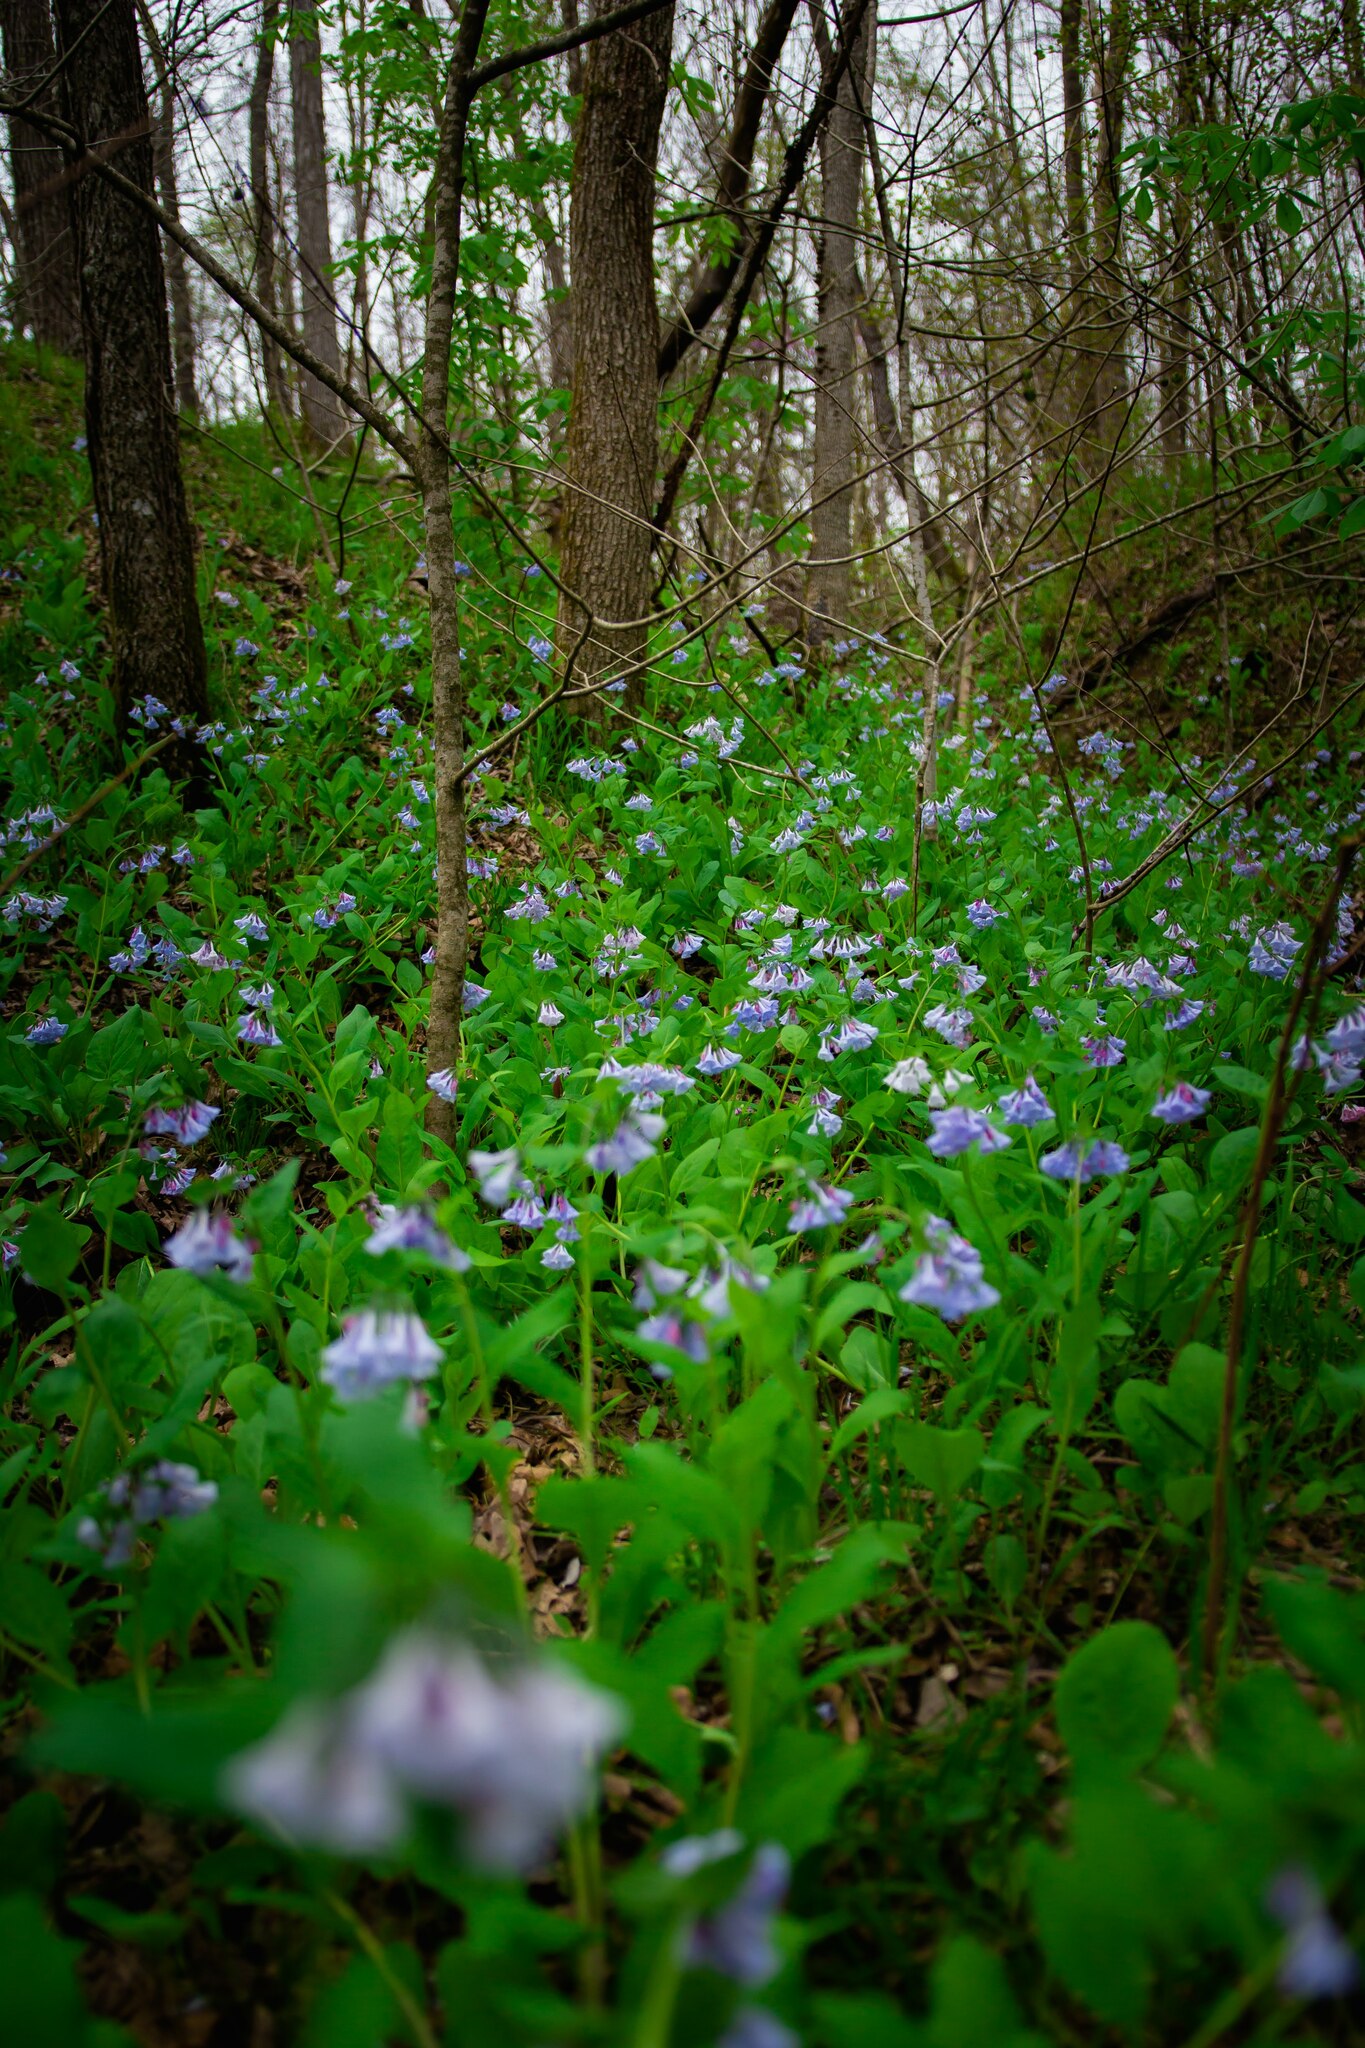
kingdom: Plantae
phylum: Tracheophyta
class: Magnoliopsida
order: Boraginales
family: Boraginaceae
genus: Mertensia
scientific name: Mertensia virginica
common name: Virginia bluebells
